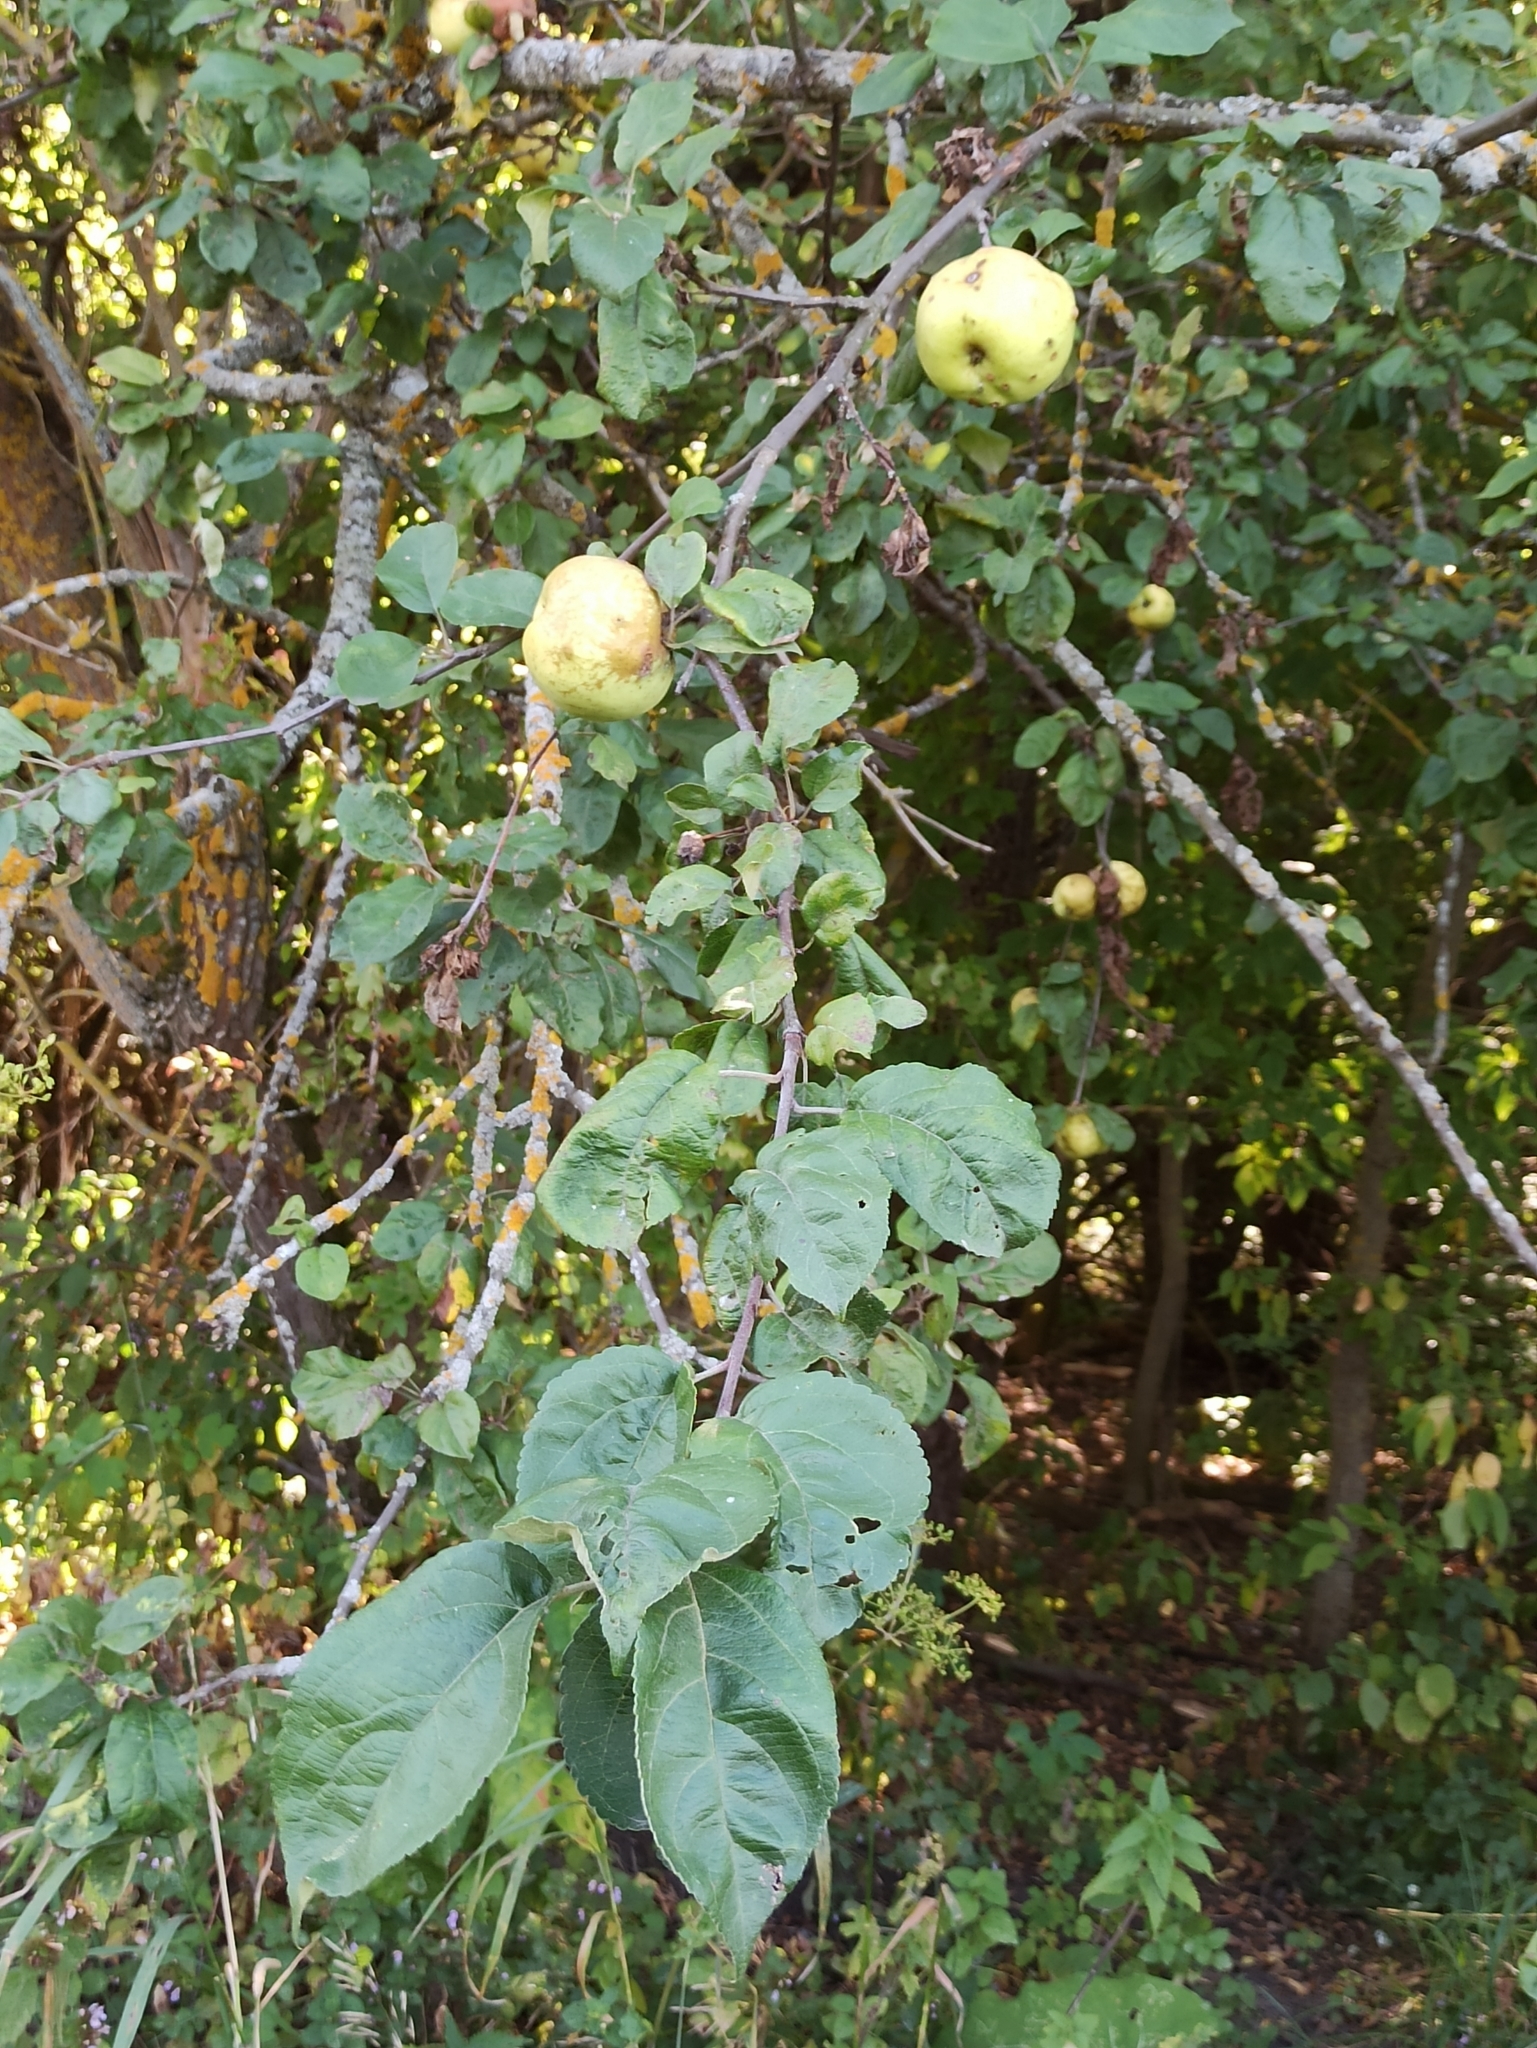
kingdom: Plantae
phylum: Tracheophyta
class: Magnoliopsida
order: Rosales
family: Rosaceae
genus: Malus
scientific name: Malus domestica
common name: Apple
